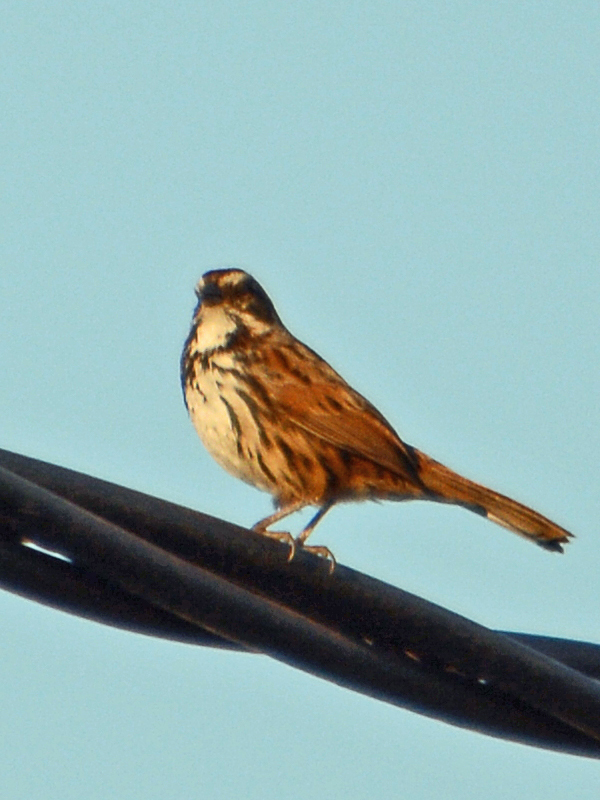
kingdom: Animalia
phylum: Chordata
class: Aves
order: Passeriformes
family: Passerellidae
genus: Melospiza
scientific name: Melospiza melodia
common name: Song sparrow
